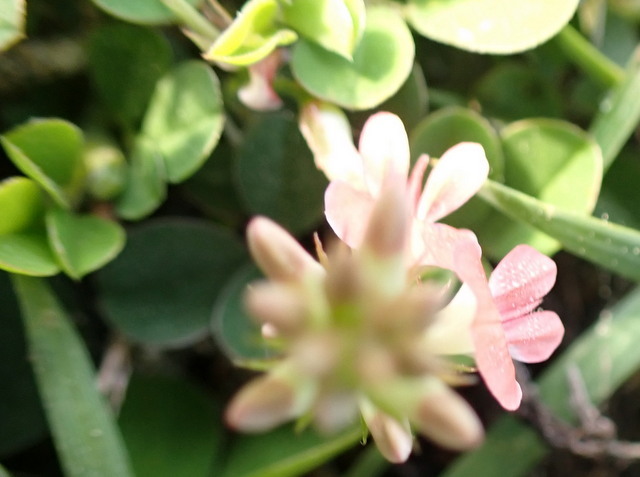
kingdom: Plantae
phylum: Tracheophyta
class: Magnoliopsida
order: Fabales
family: Fabaceae
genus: Indigofera
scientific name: Indigofera spicata
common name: Creeping indigo
